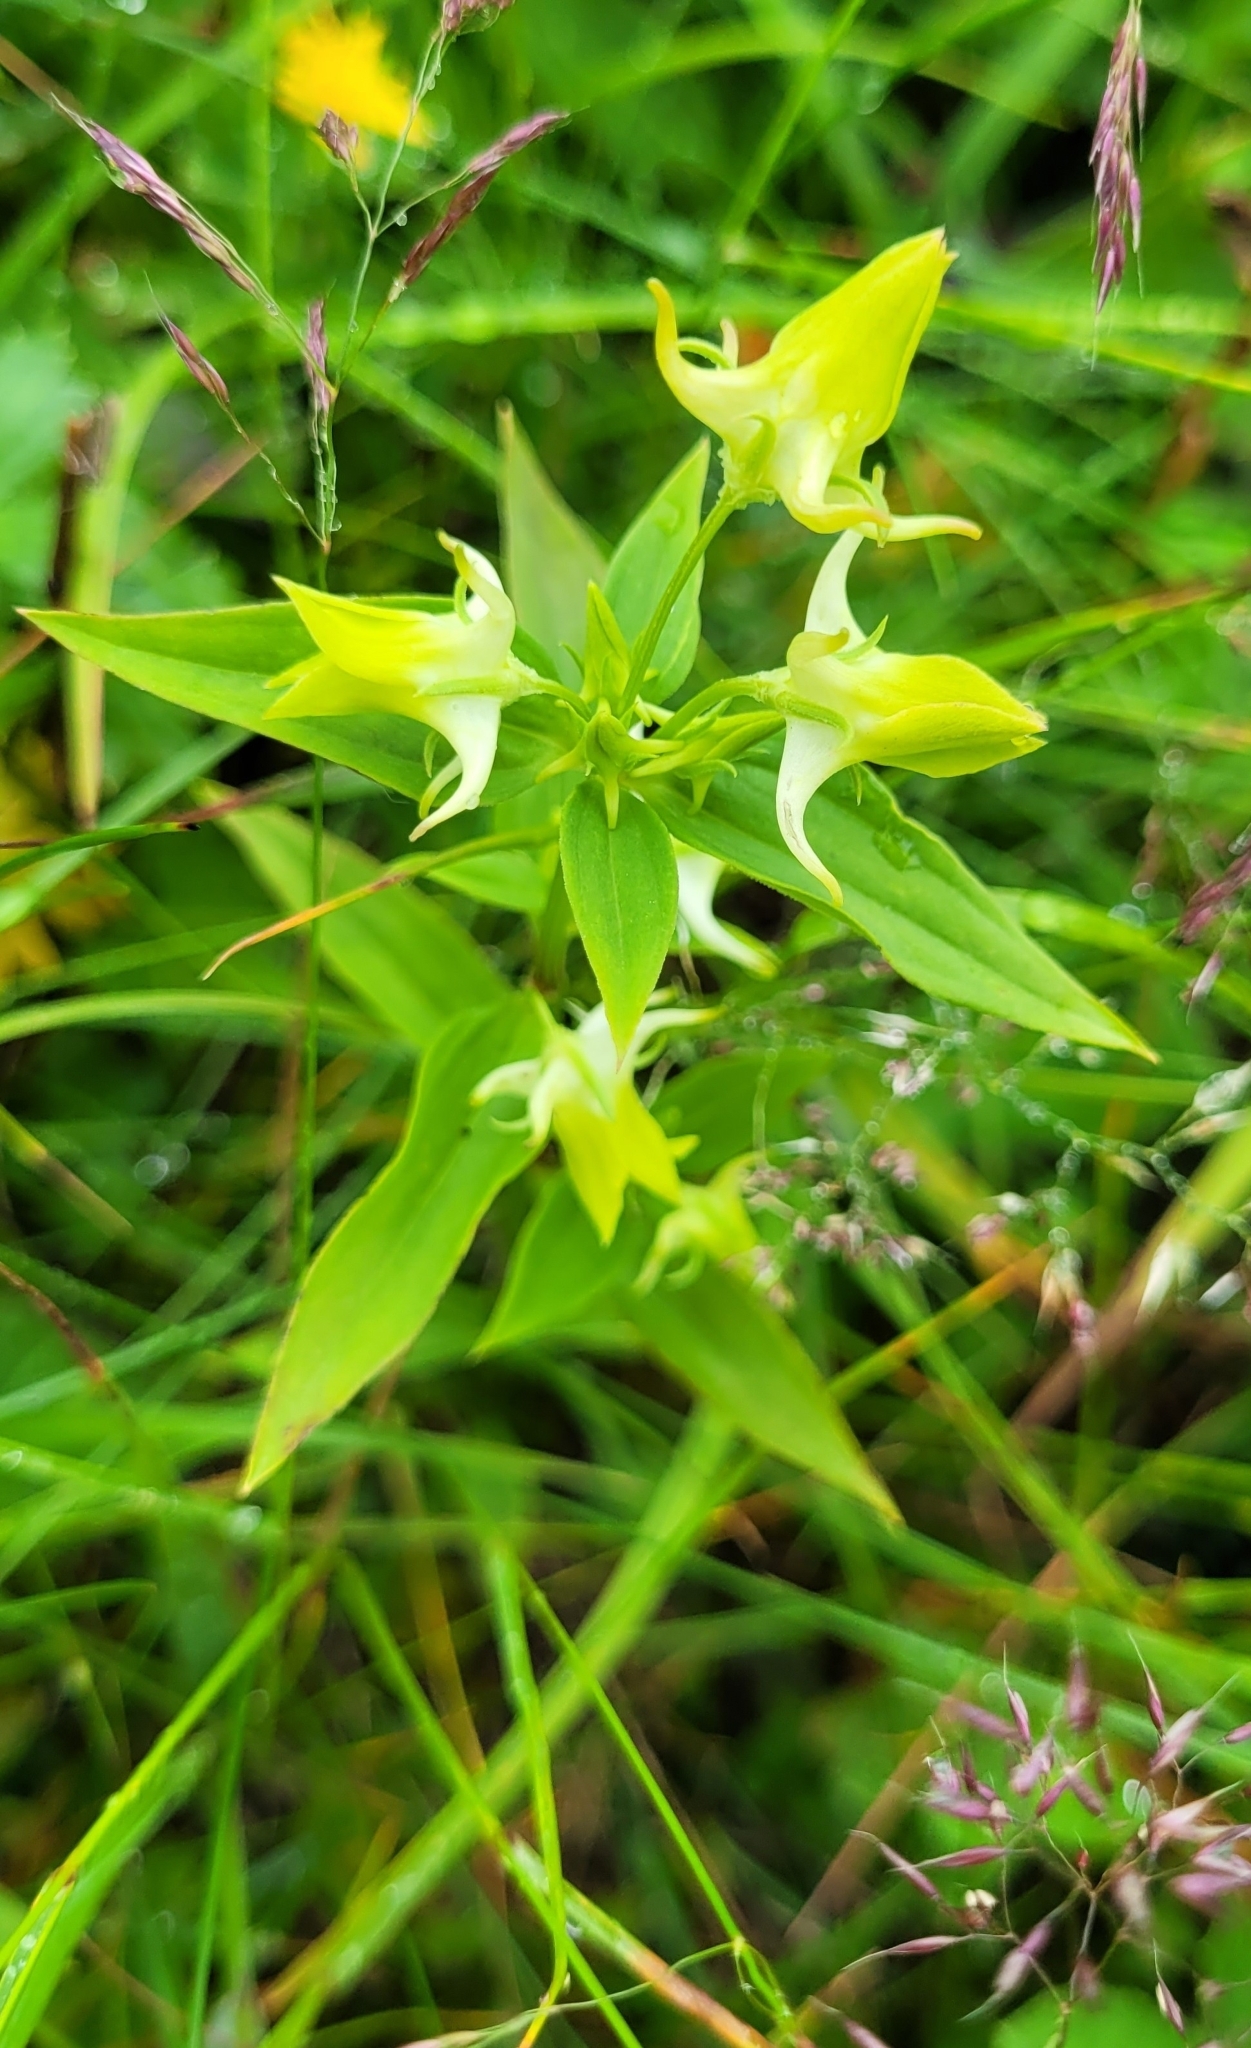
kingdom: Plantae
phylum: Tracheophyta
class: Magnoliopsida
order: Gentianales
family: Gentianaceae
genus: Halenia
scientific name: Halenia corniculata
